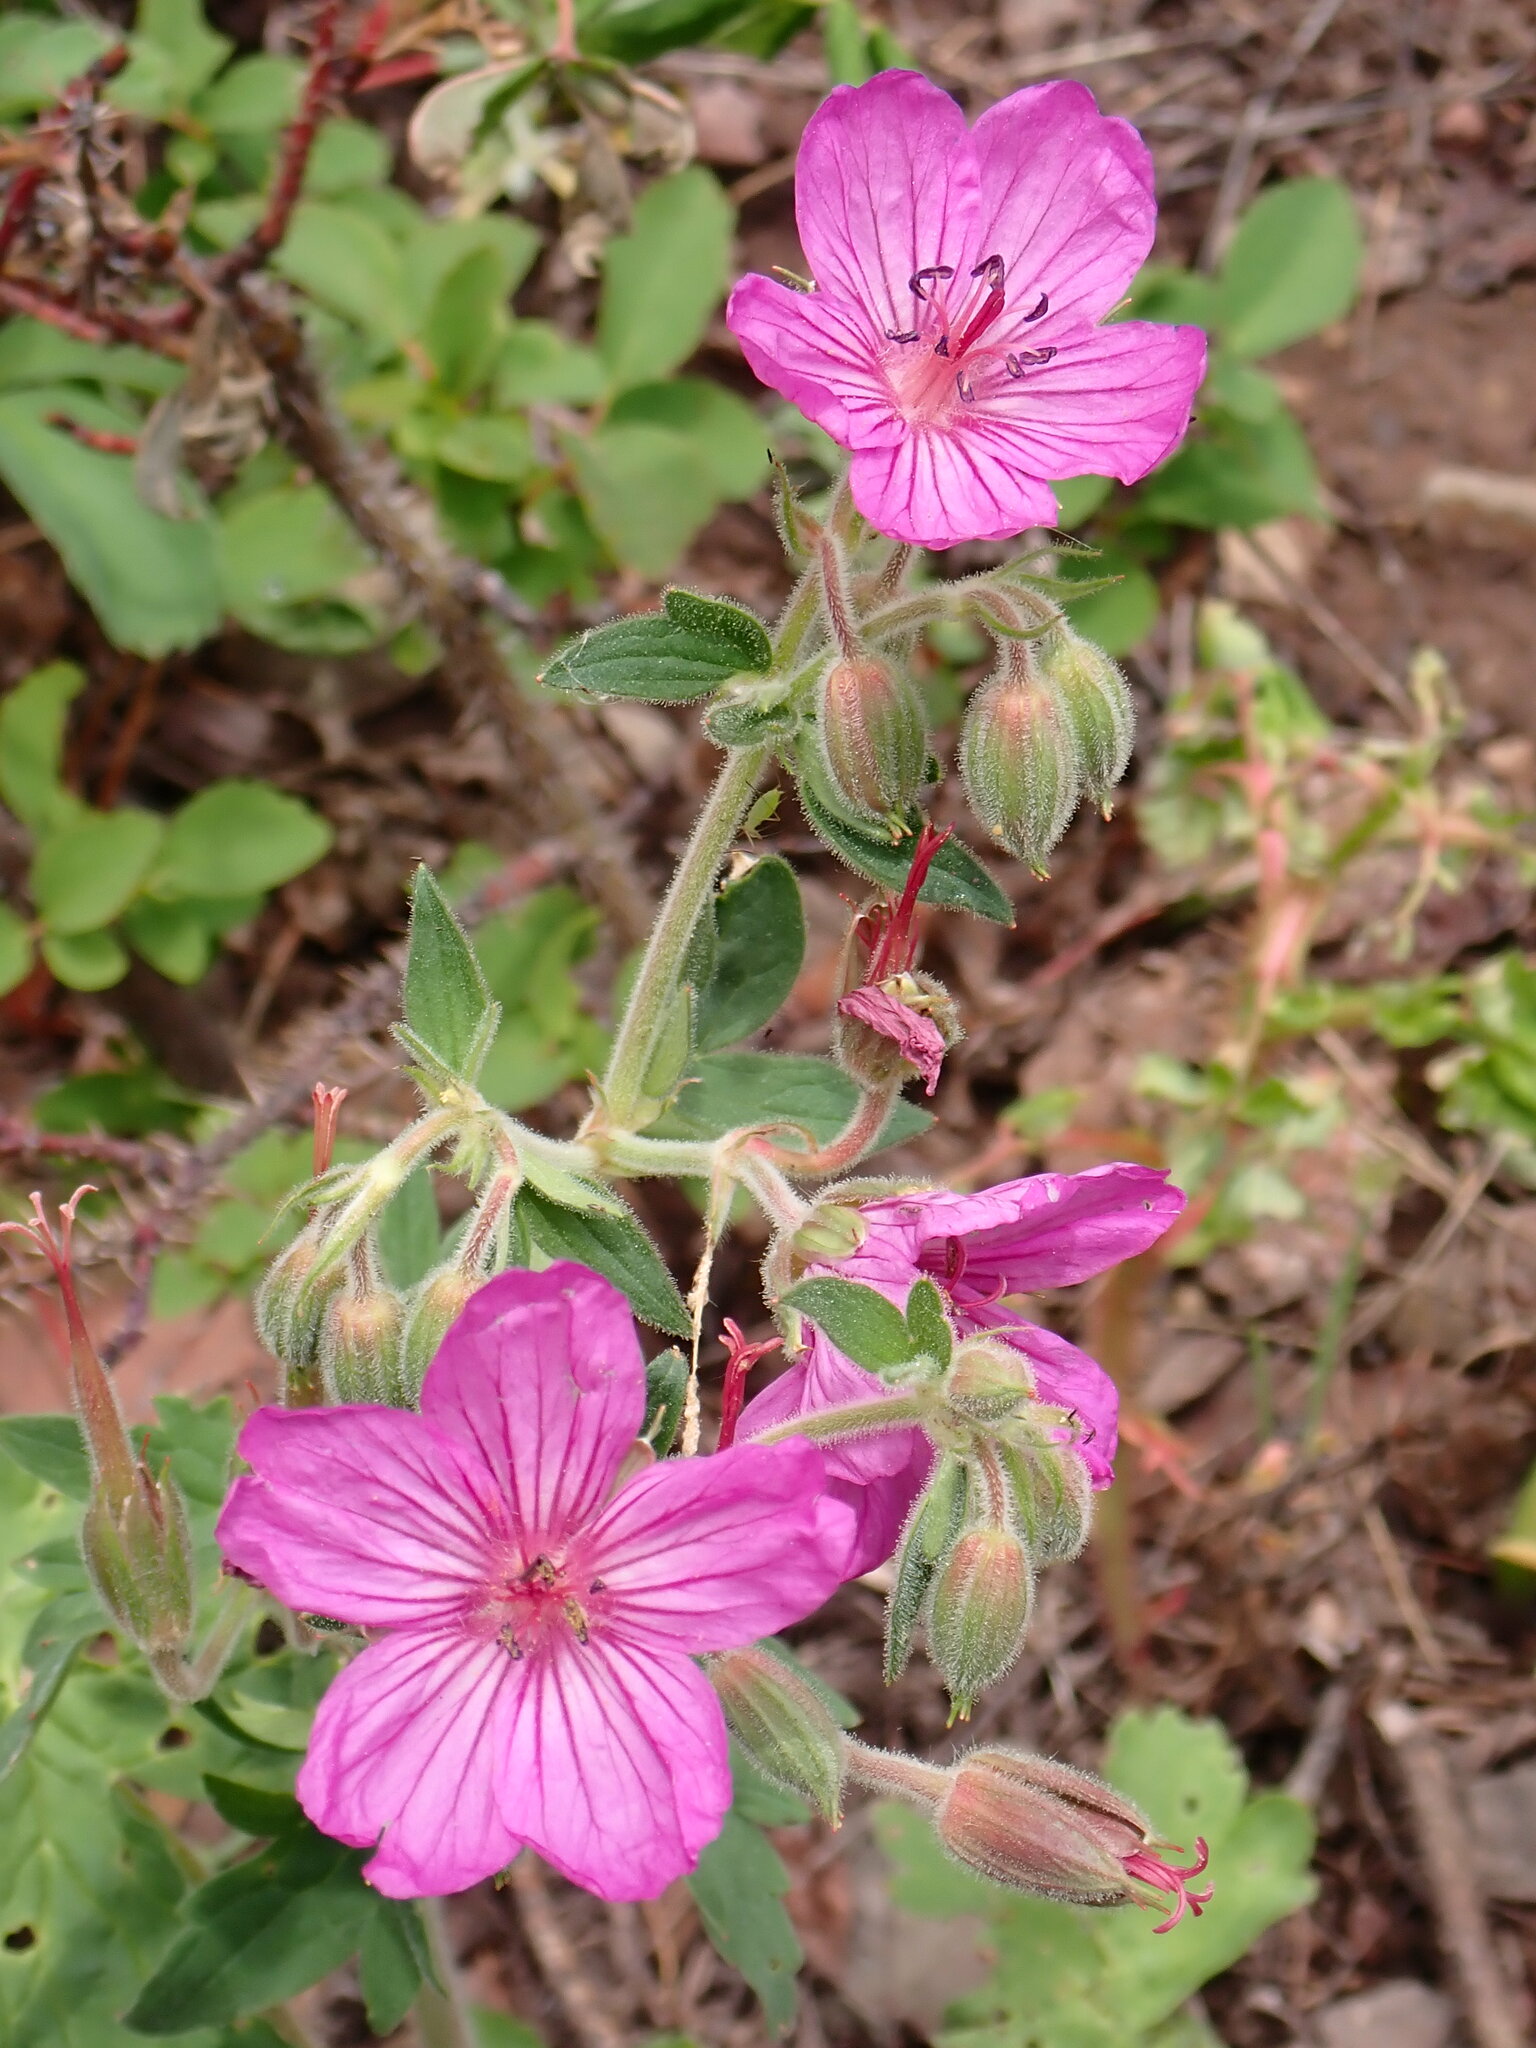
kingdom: Plantae
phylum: Tracheophyta
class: Magnoliopsida
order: Geraniales
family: Geraniaceae
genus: Geranium
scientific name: Geranium viscosissimum
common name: Purple geranium
